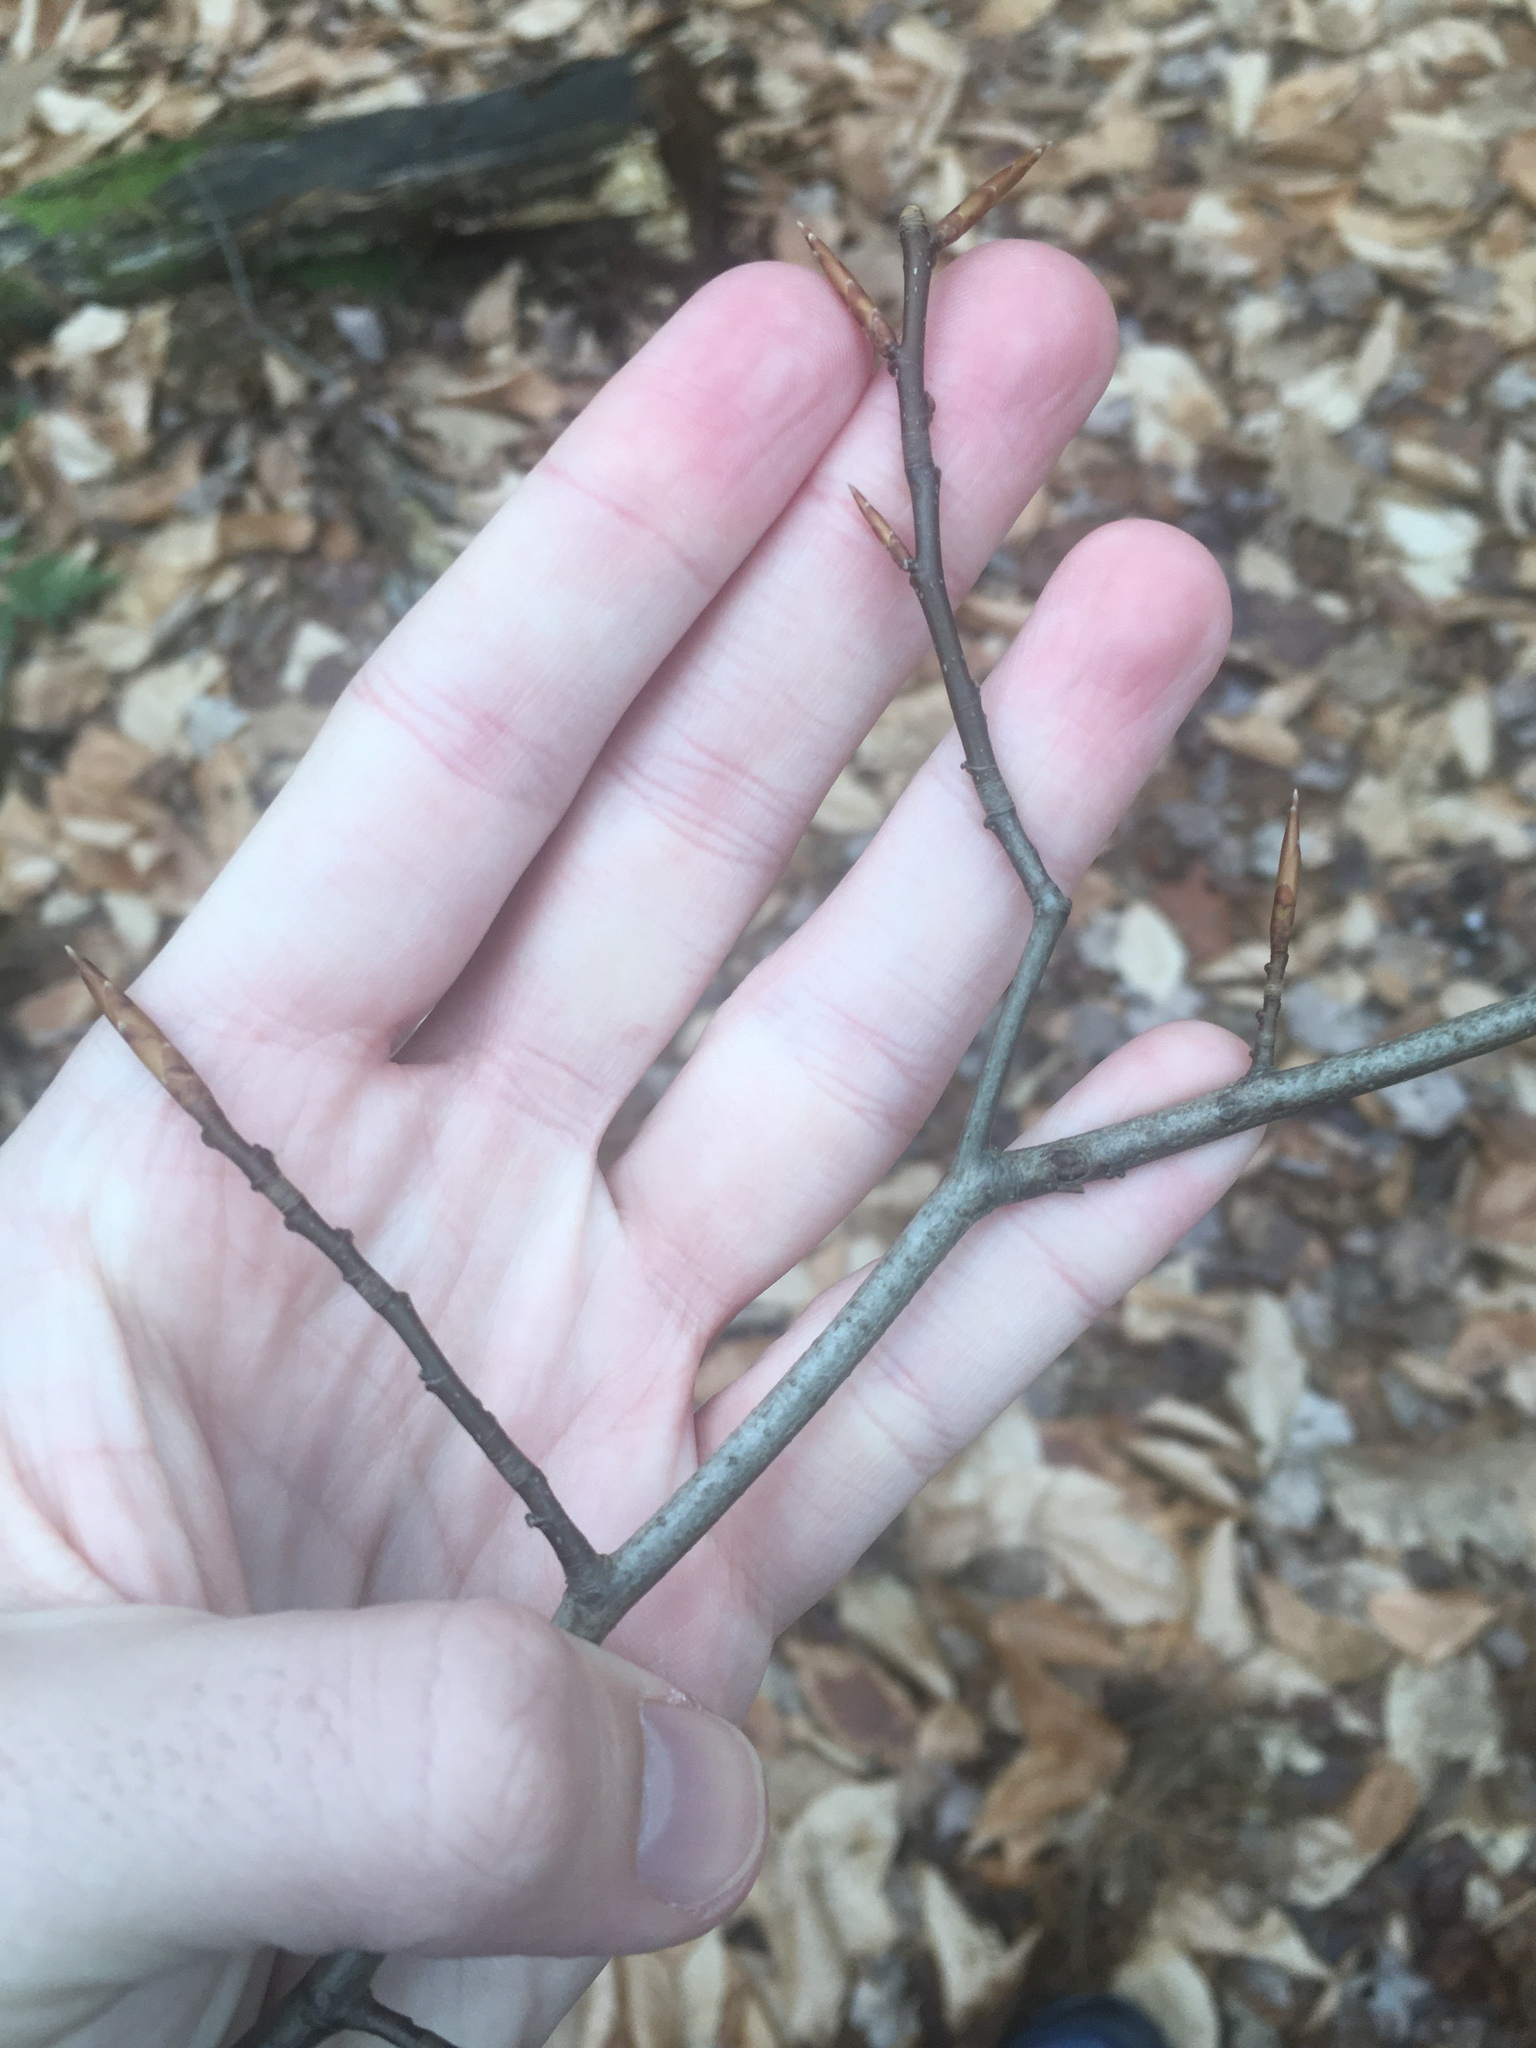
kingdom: Plantae
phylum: Tracheophyta
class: Magnoliopsida
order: Fagales
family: Fagaceae
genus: Fagus
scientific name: Fagus grandifolia
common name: American beech
